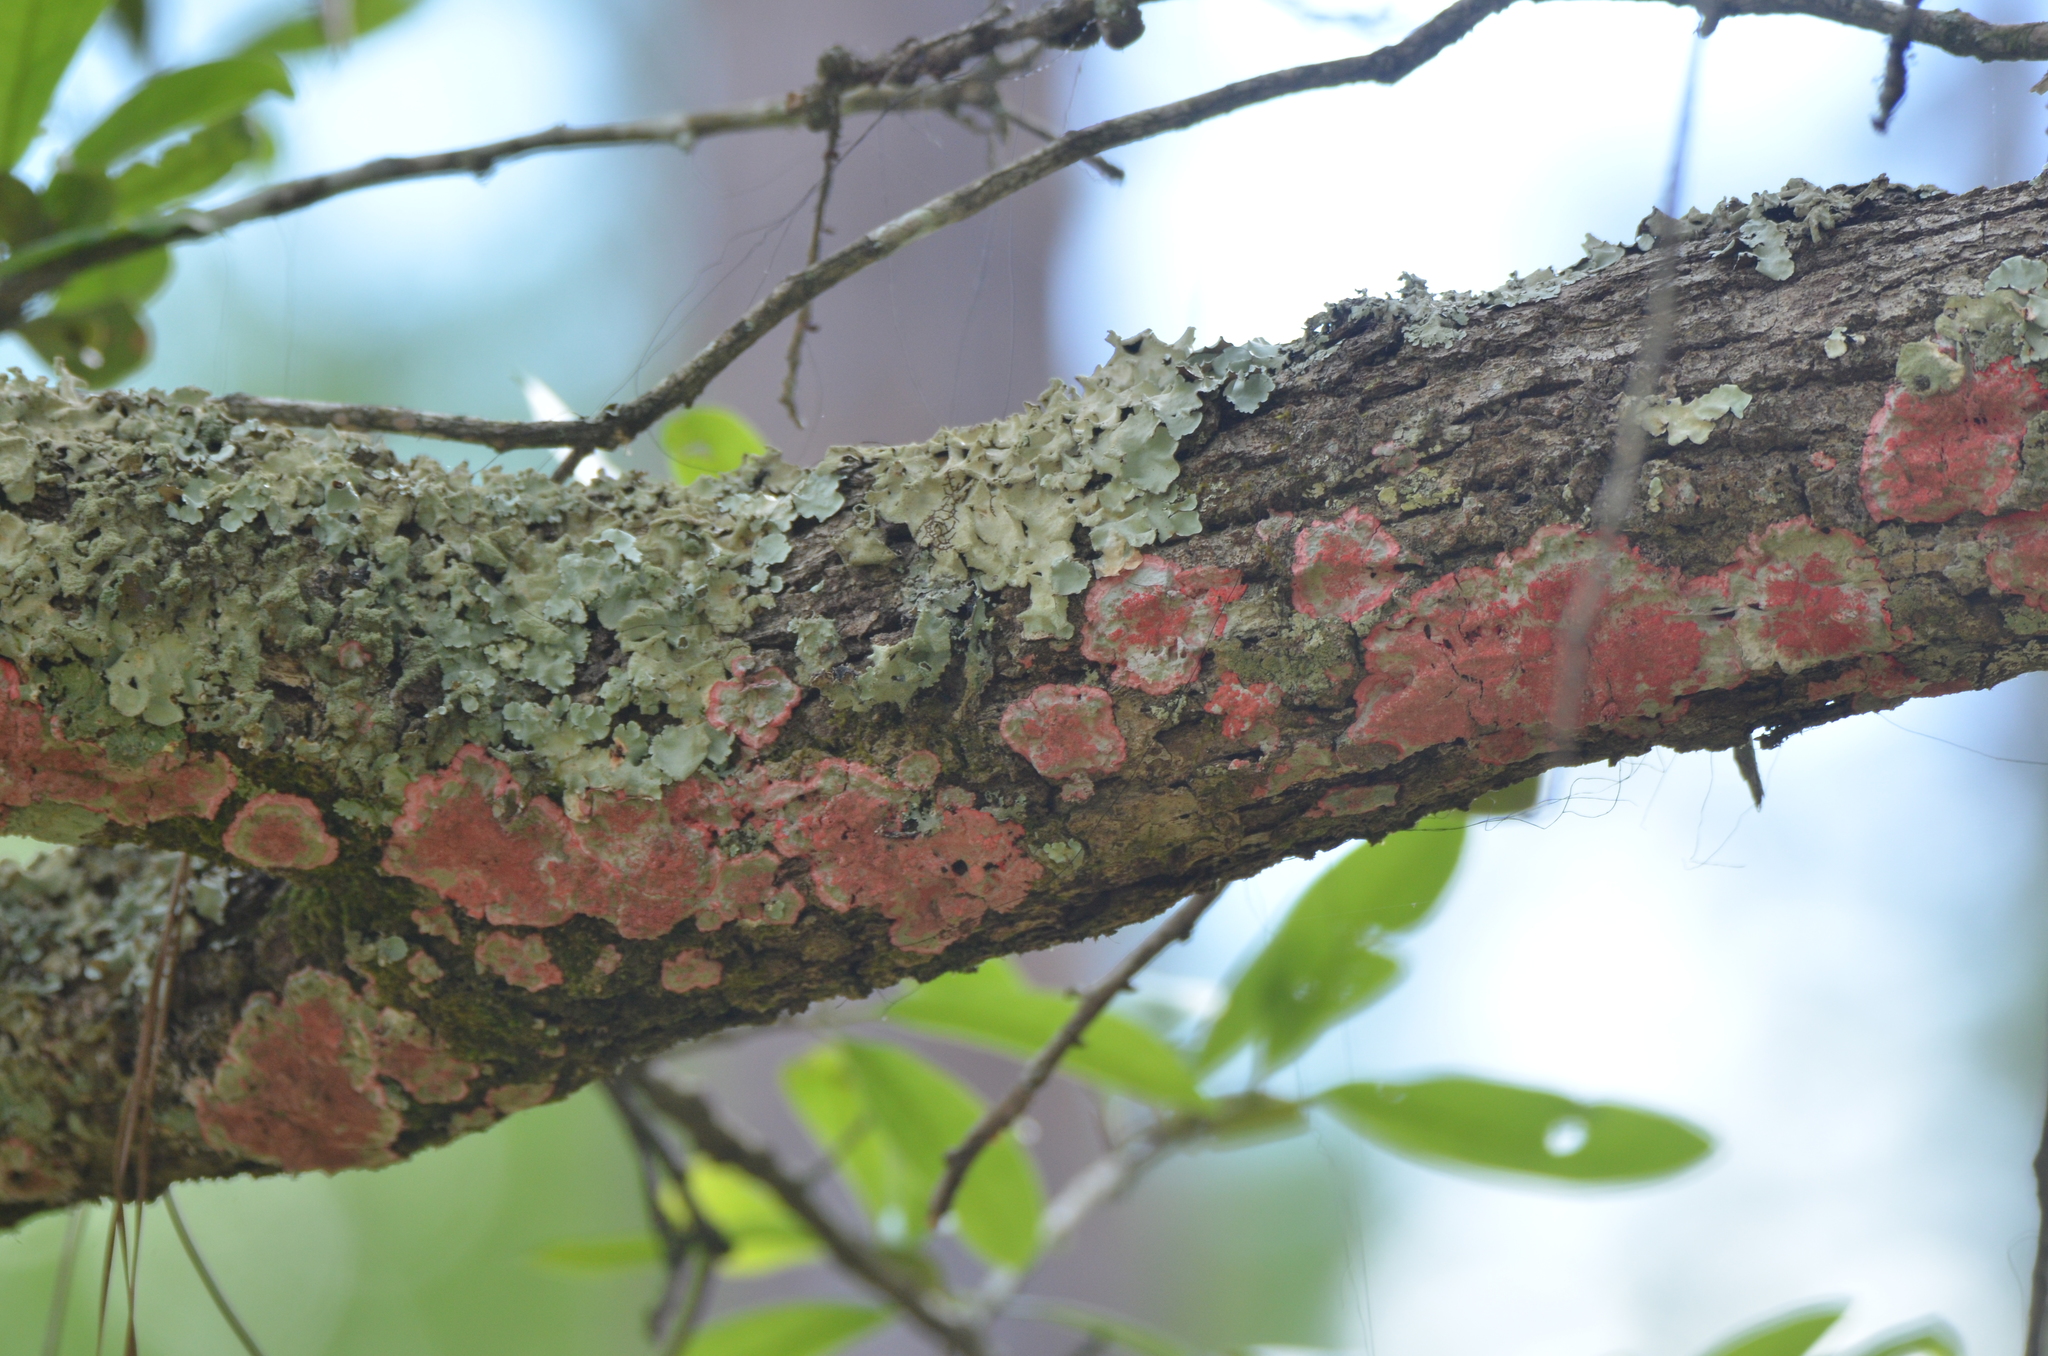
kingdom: Fungi
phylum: Ascomycota
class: Arthoniomycetes
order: Arthoniales
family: Arthoniaceae
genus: Herpothallon
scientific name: Herpothallon rubrocinctum
